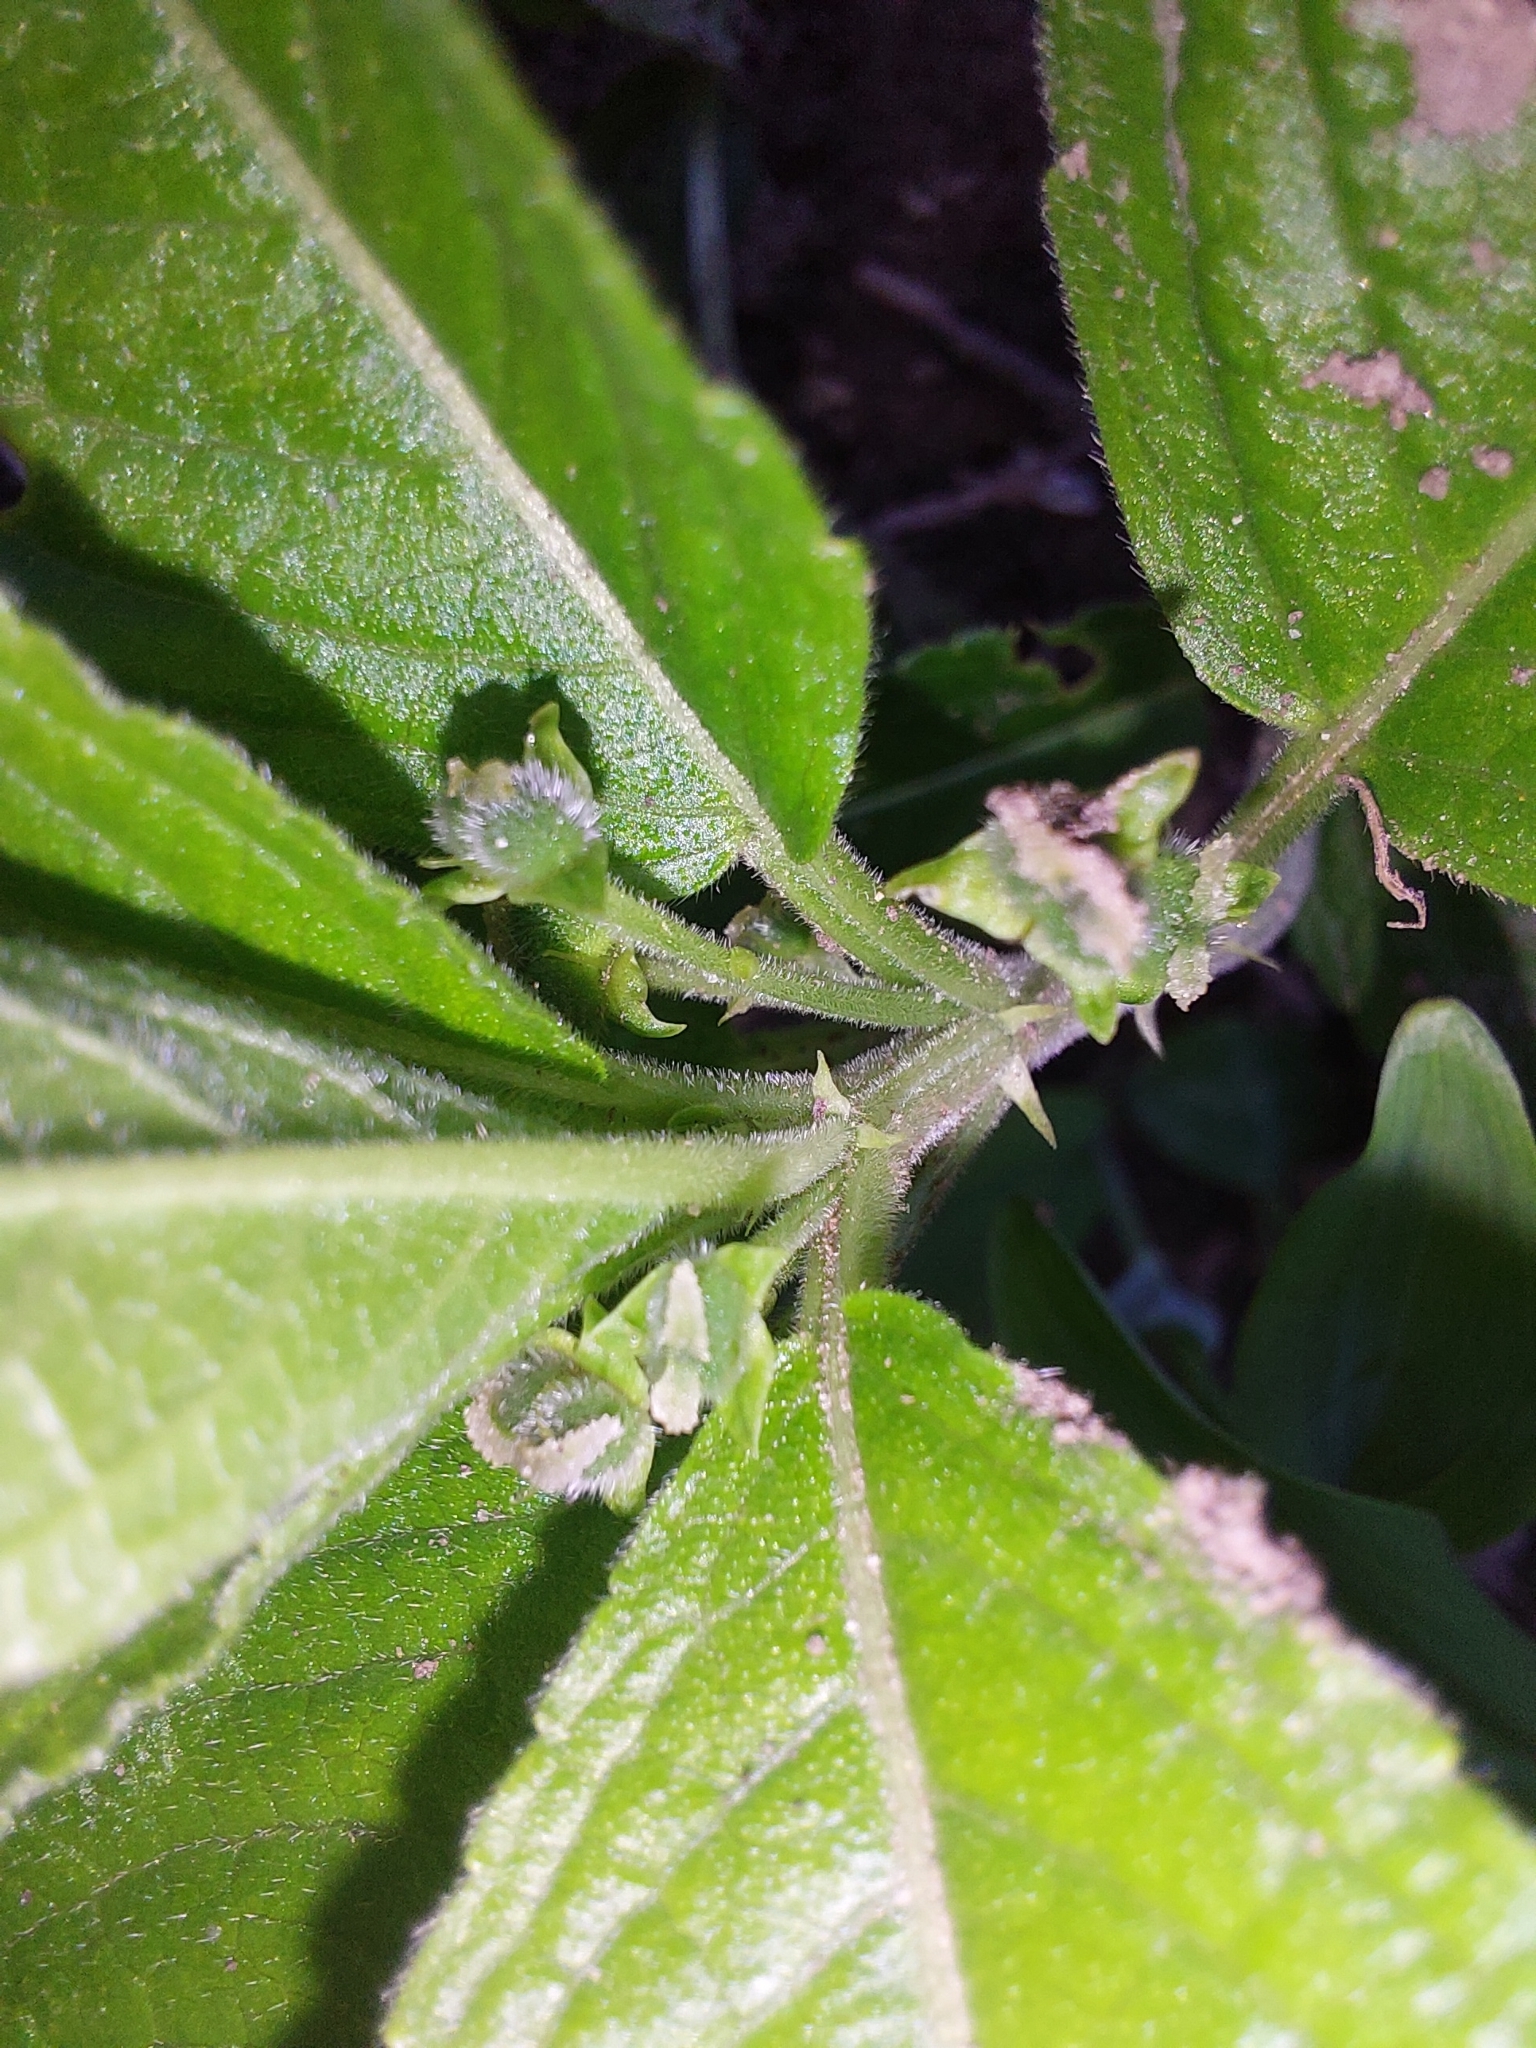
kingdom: Plantae
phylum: Tracheophyta
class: Magnoliopsida
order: Malpighiales
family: Euphorbiaceae
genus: Mercurialis
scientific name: Mercurialis perennis
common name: Dog mercury
